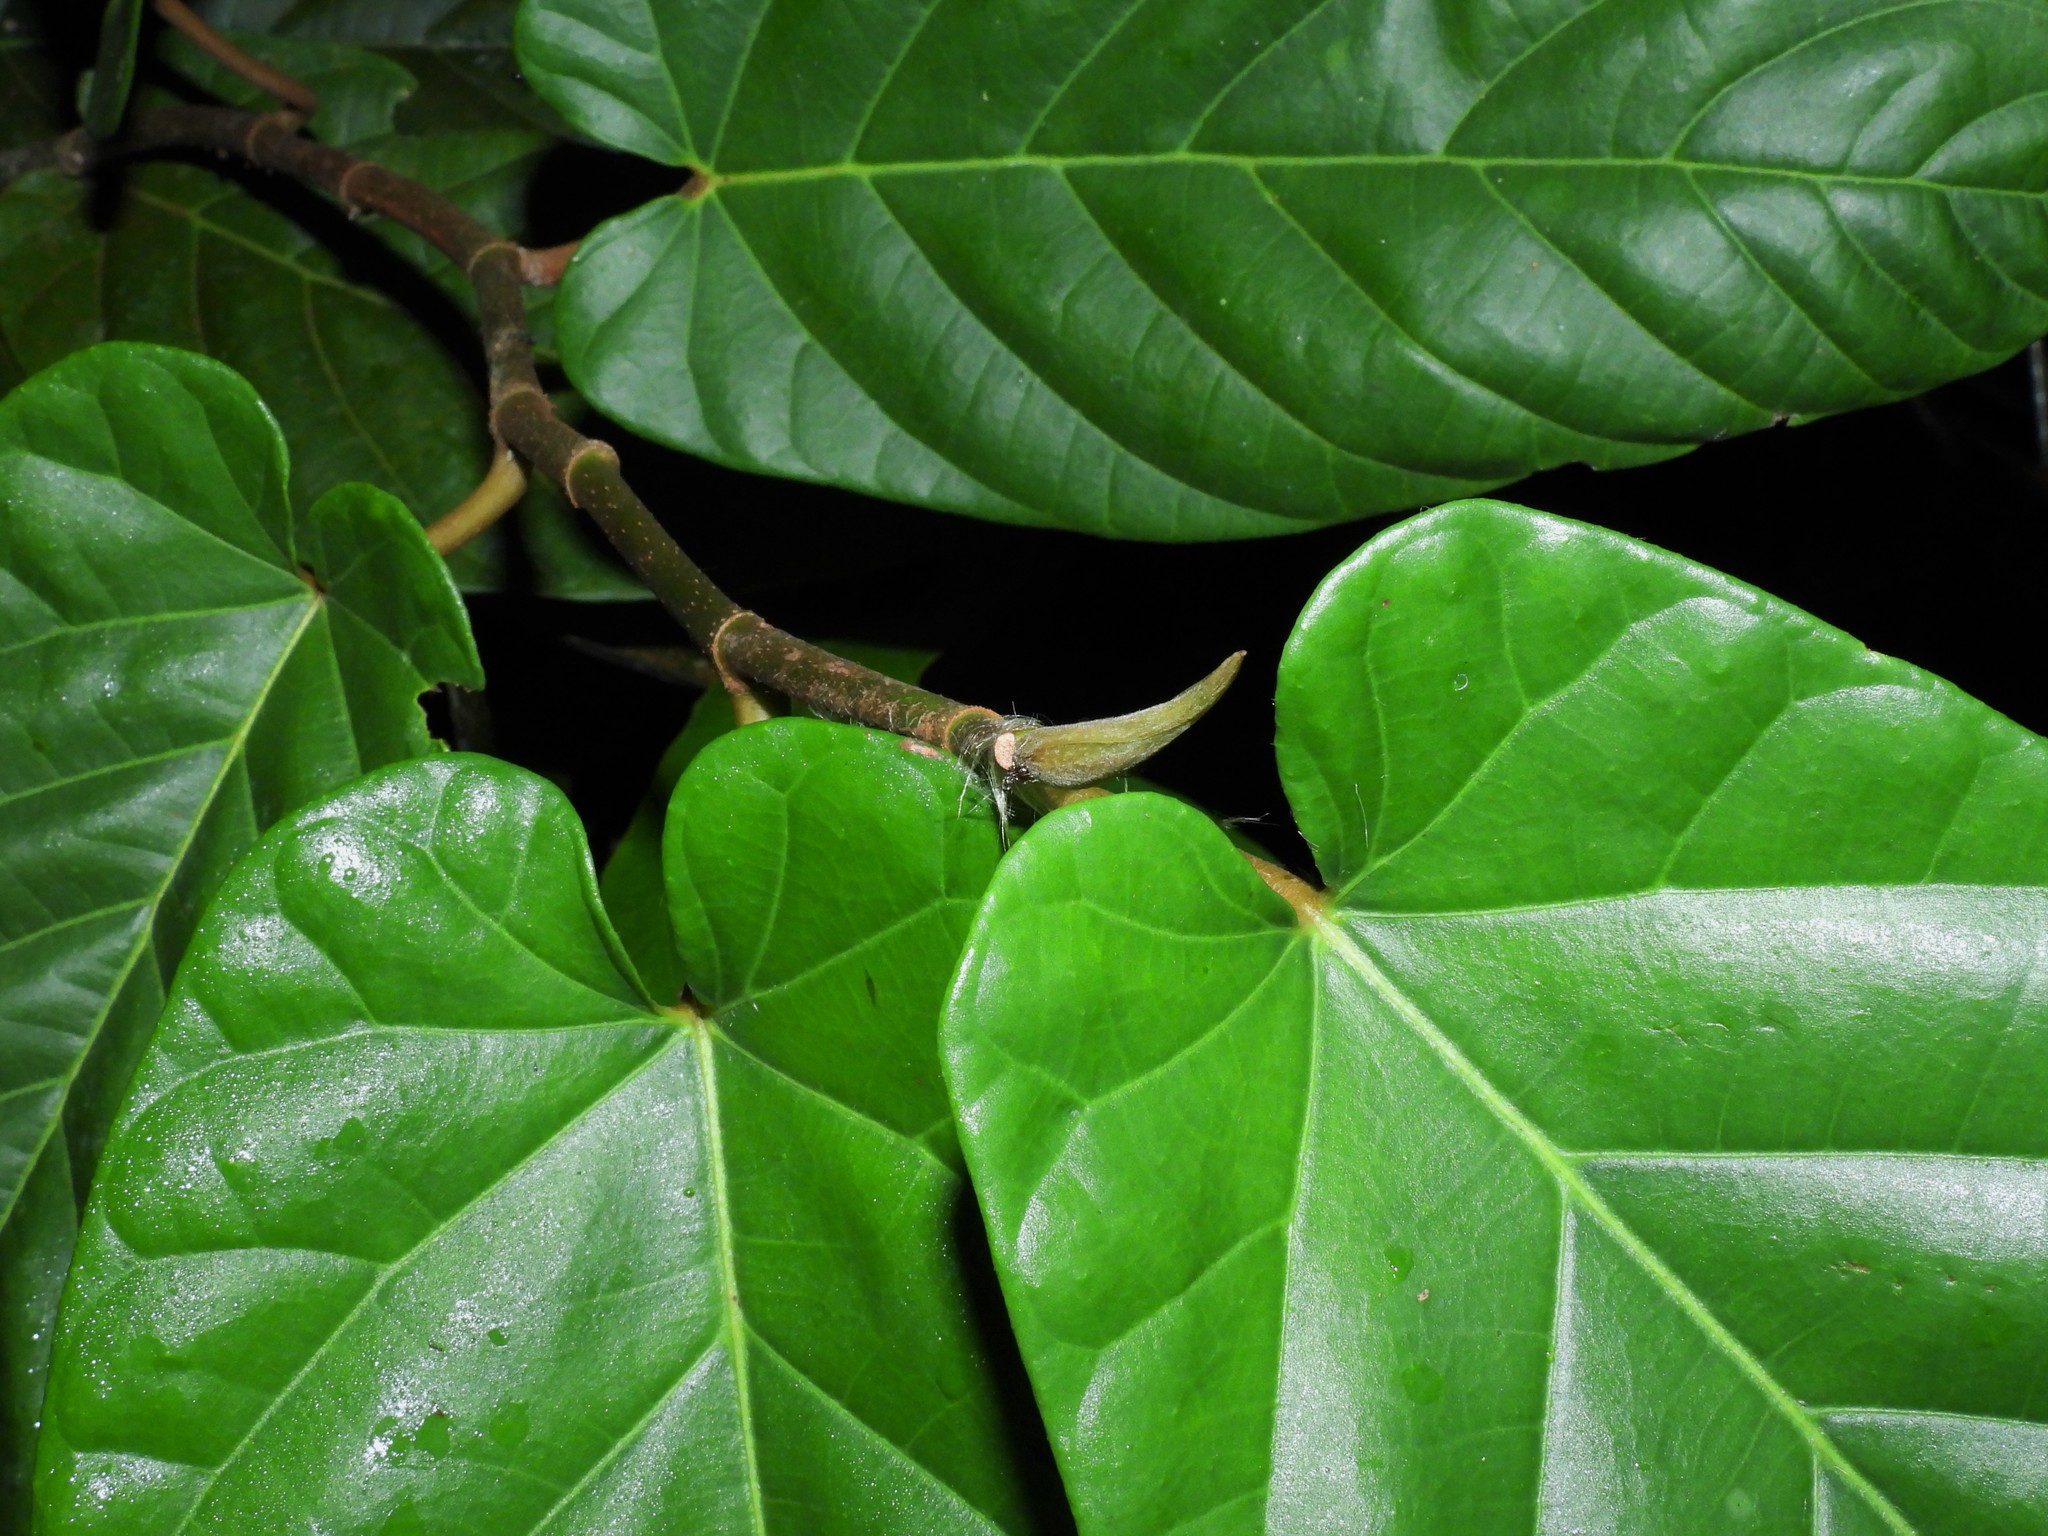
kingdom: Plantae
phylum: Tracheophyta
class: Magnoliopsida
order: Rosales
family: Moraceae
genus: Ficus
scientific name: Ficus sagittata
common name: Trailing fig
